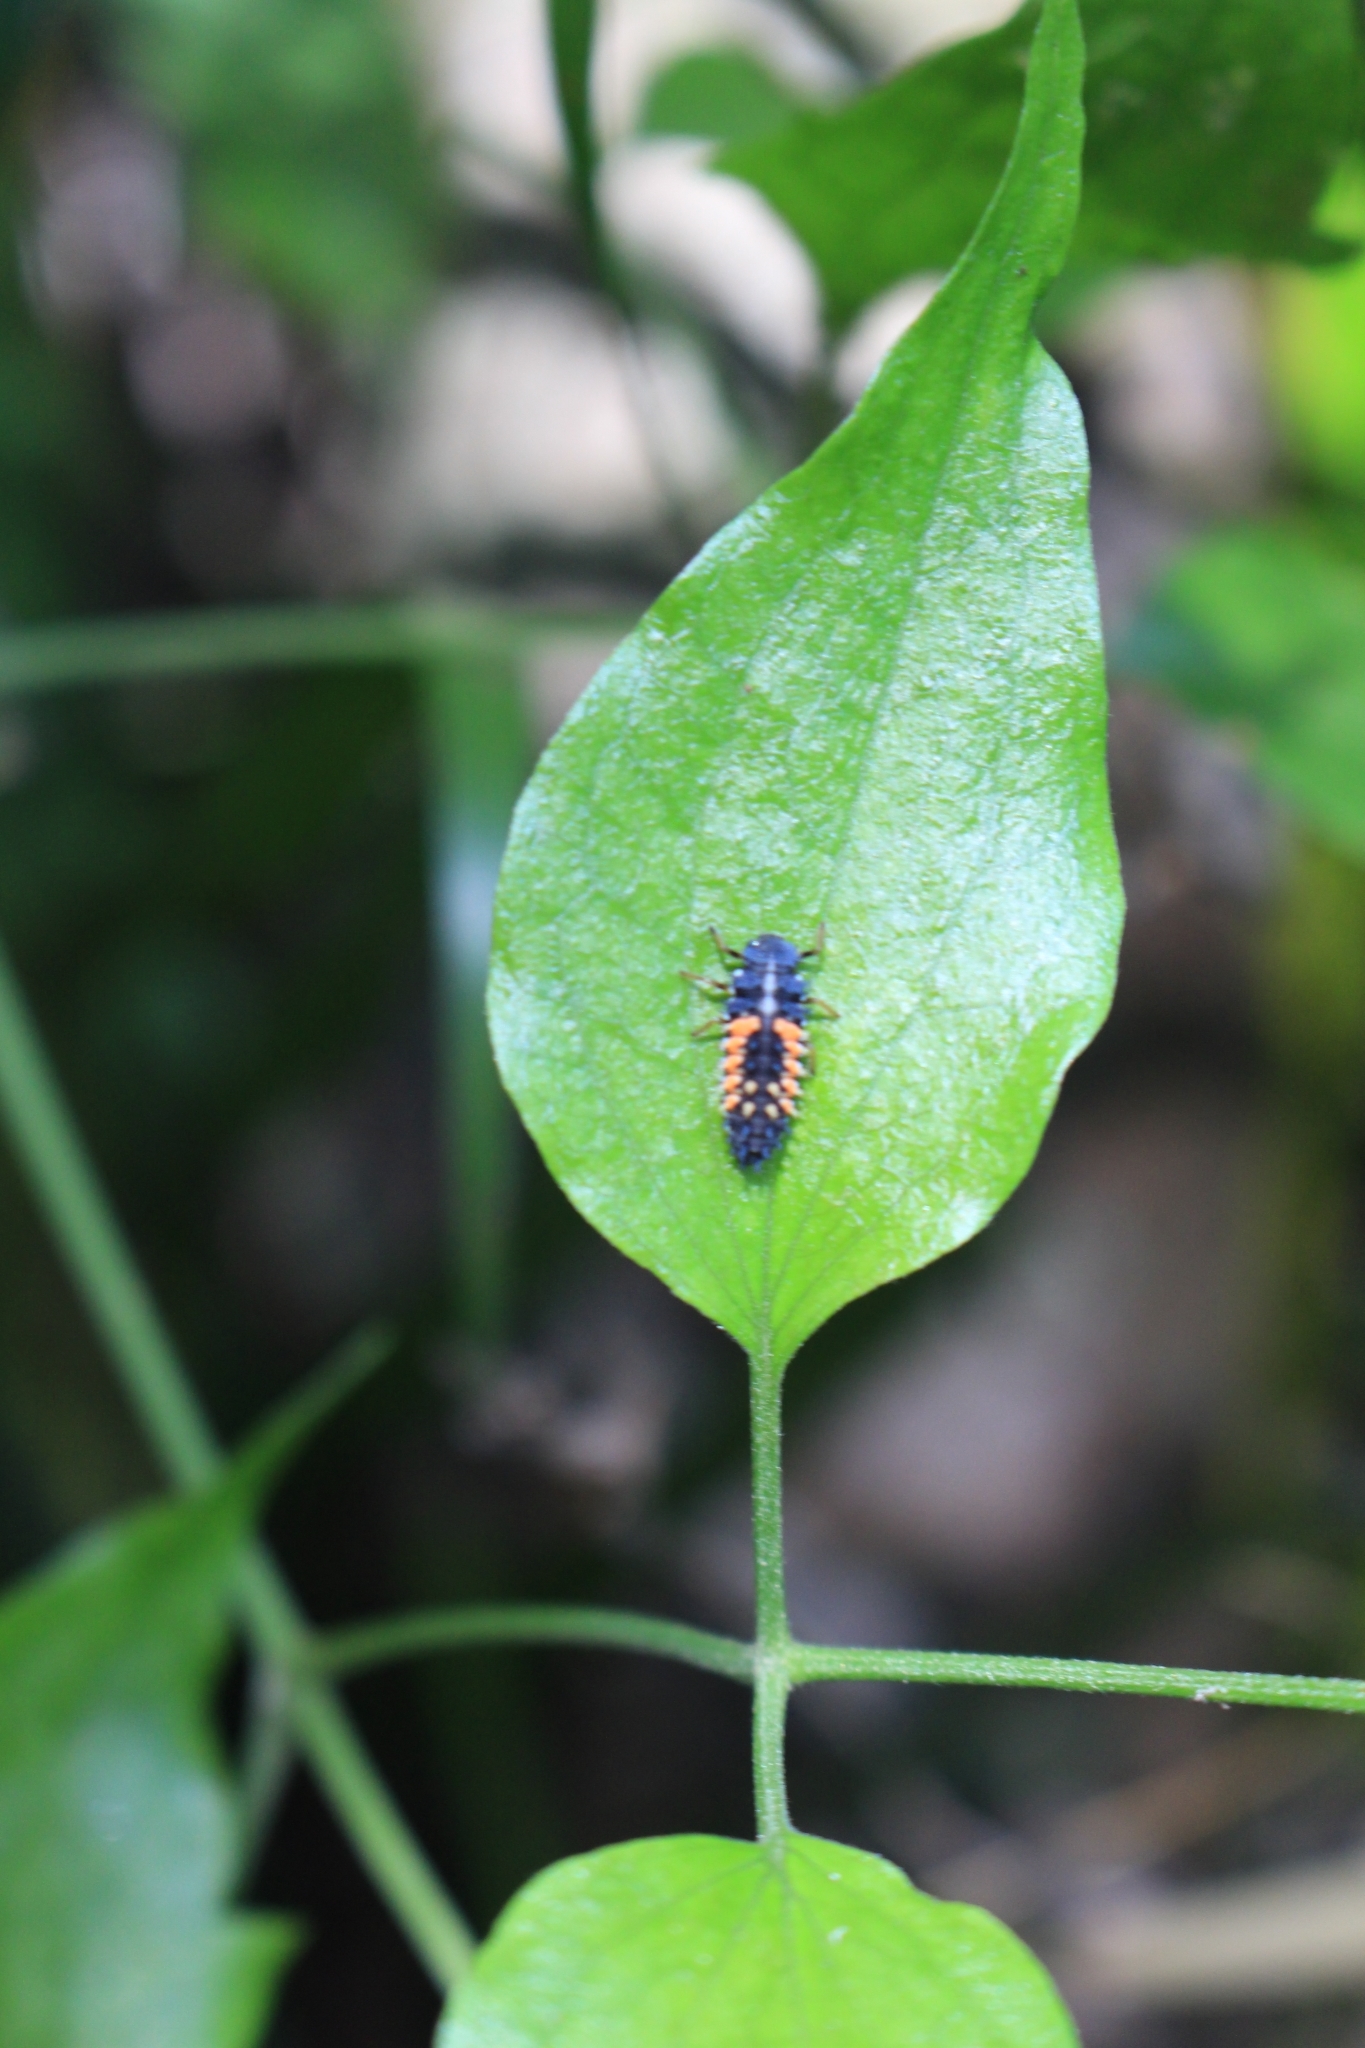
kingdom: Animalia
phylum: Arthropoda
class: Insecta
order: Coleoptera
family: Coccinellidae
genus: Harmonia
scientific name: Harmonia axyridis
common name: Harlequin ladybird
